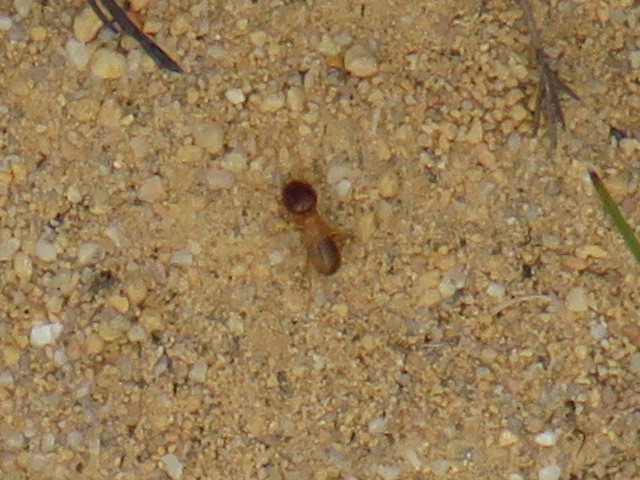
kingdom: Animalia
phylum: Arthropoda
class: Insecta
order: Blattodea
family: Hodotermitidae
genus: Microhodotermes
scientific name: Microhodotermes viator
